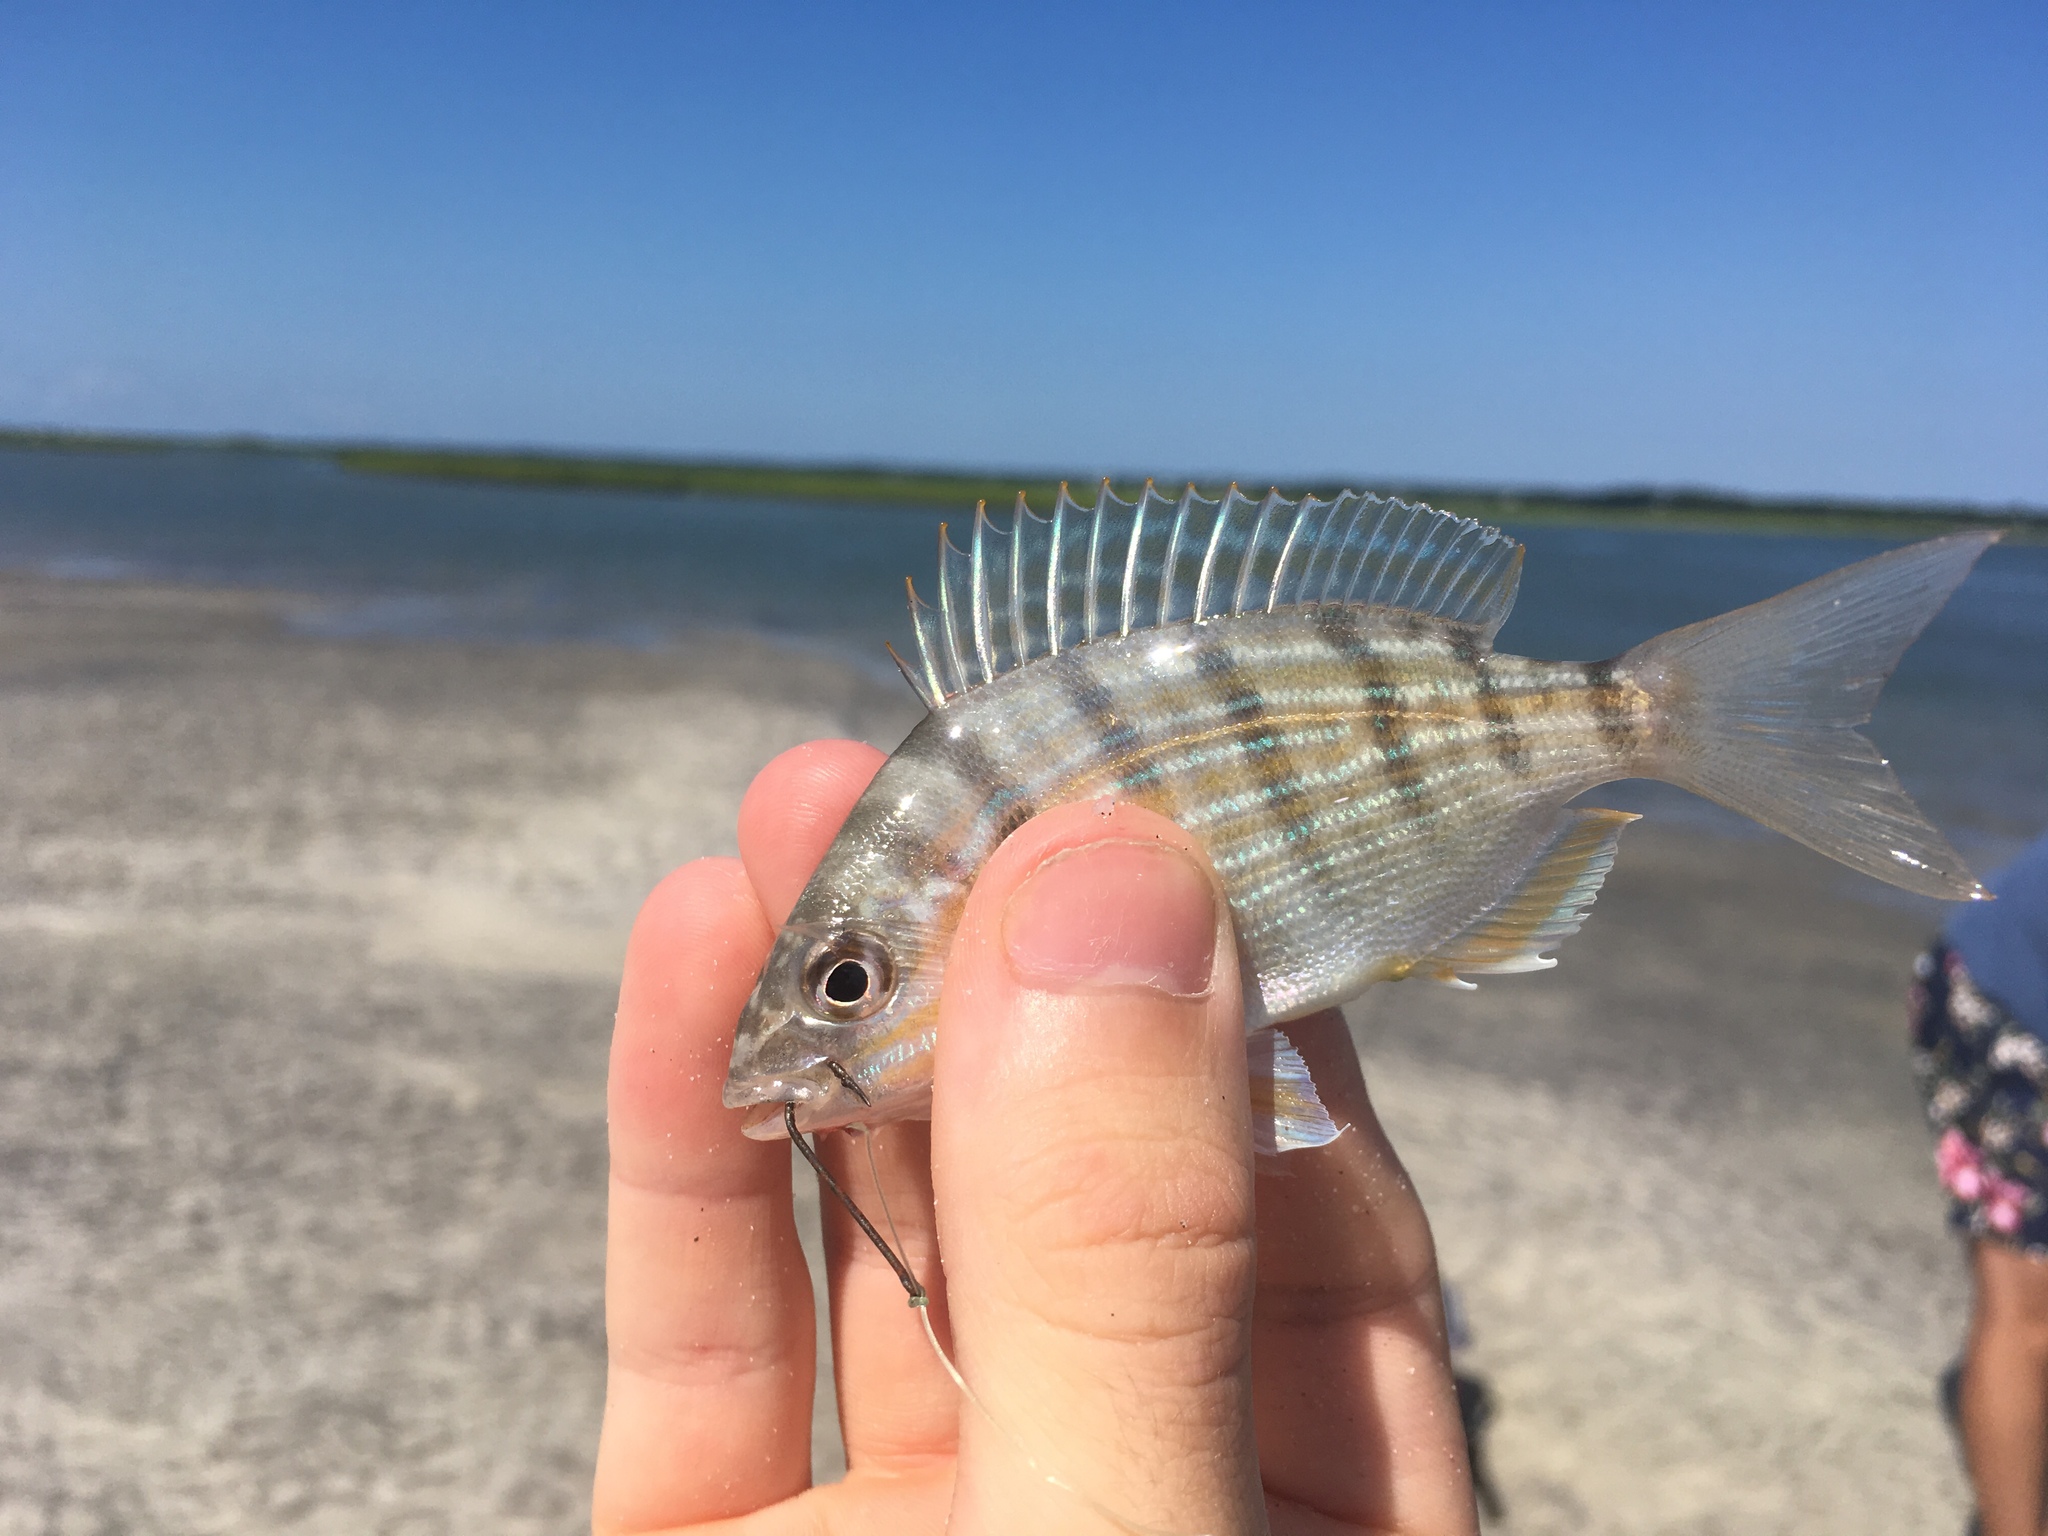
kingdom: Animalia
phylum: Chordata
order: Perciformes
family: Sparidae
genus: Lagodon
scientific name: Lagodon rhomboides
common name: Pinfish
